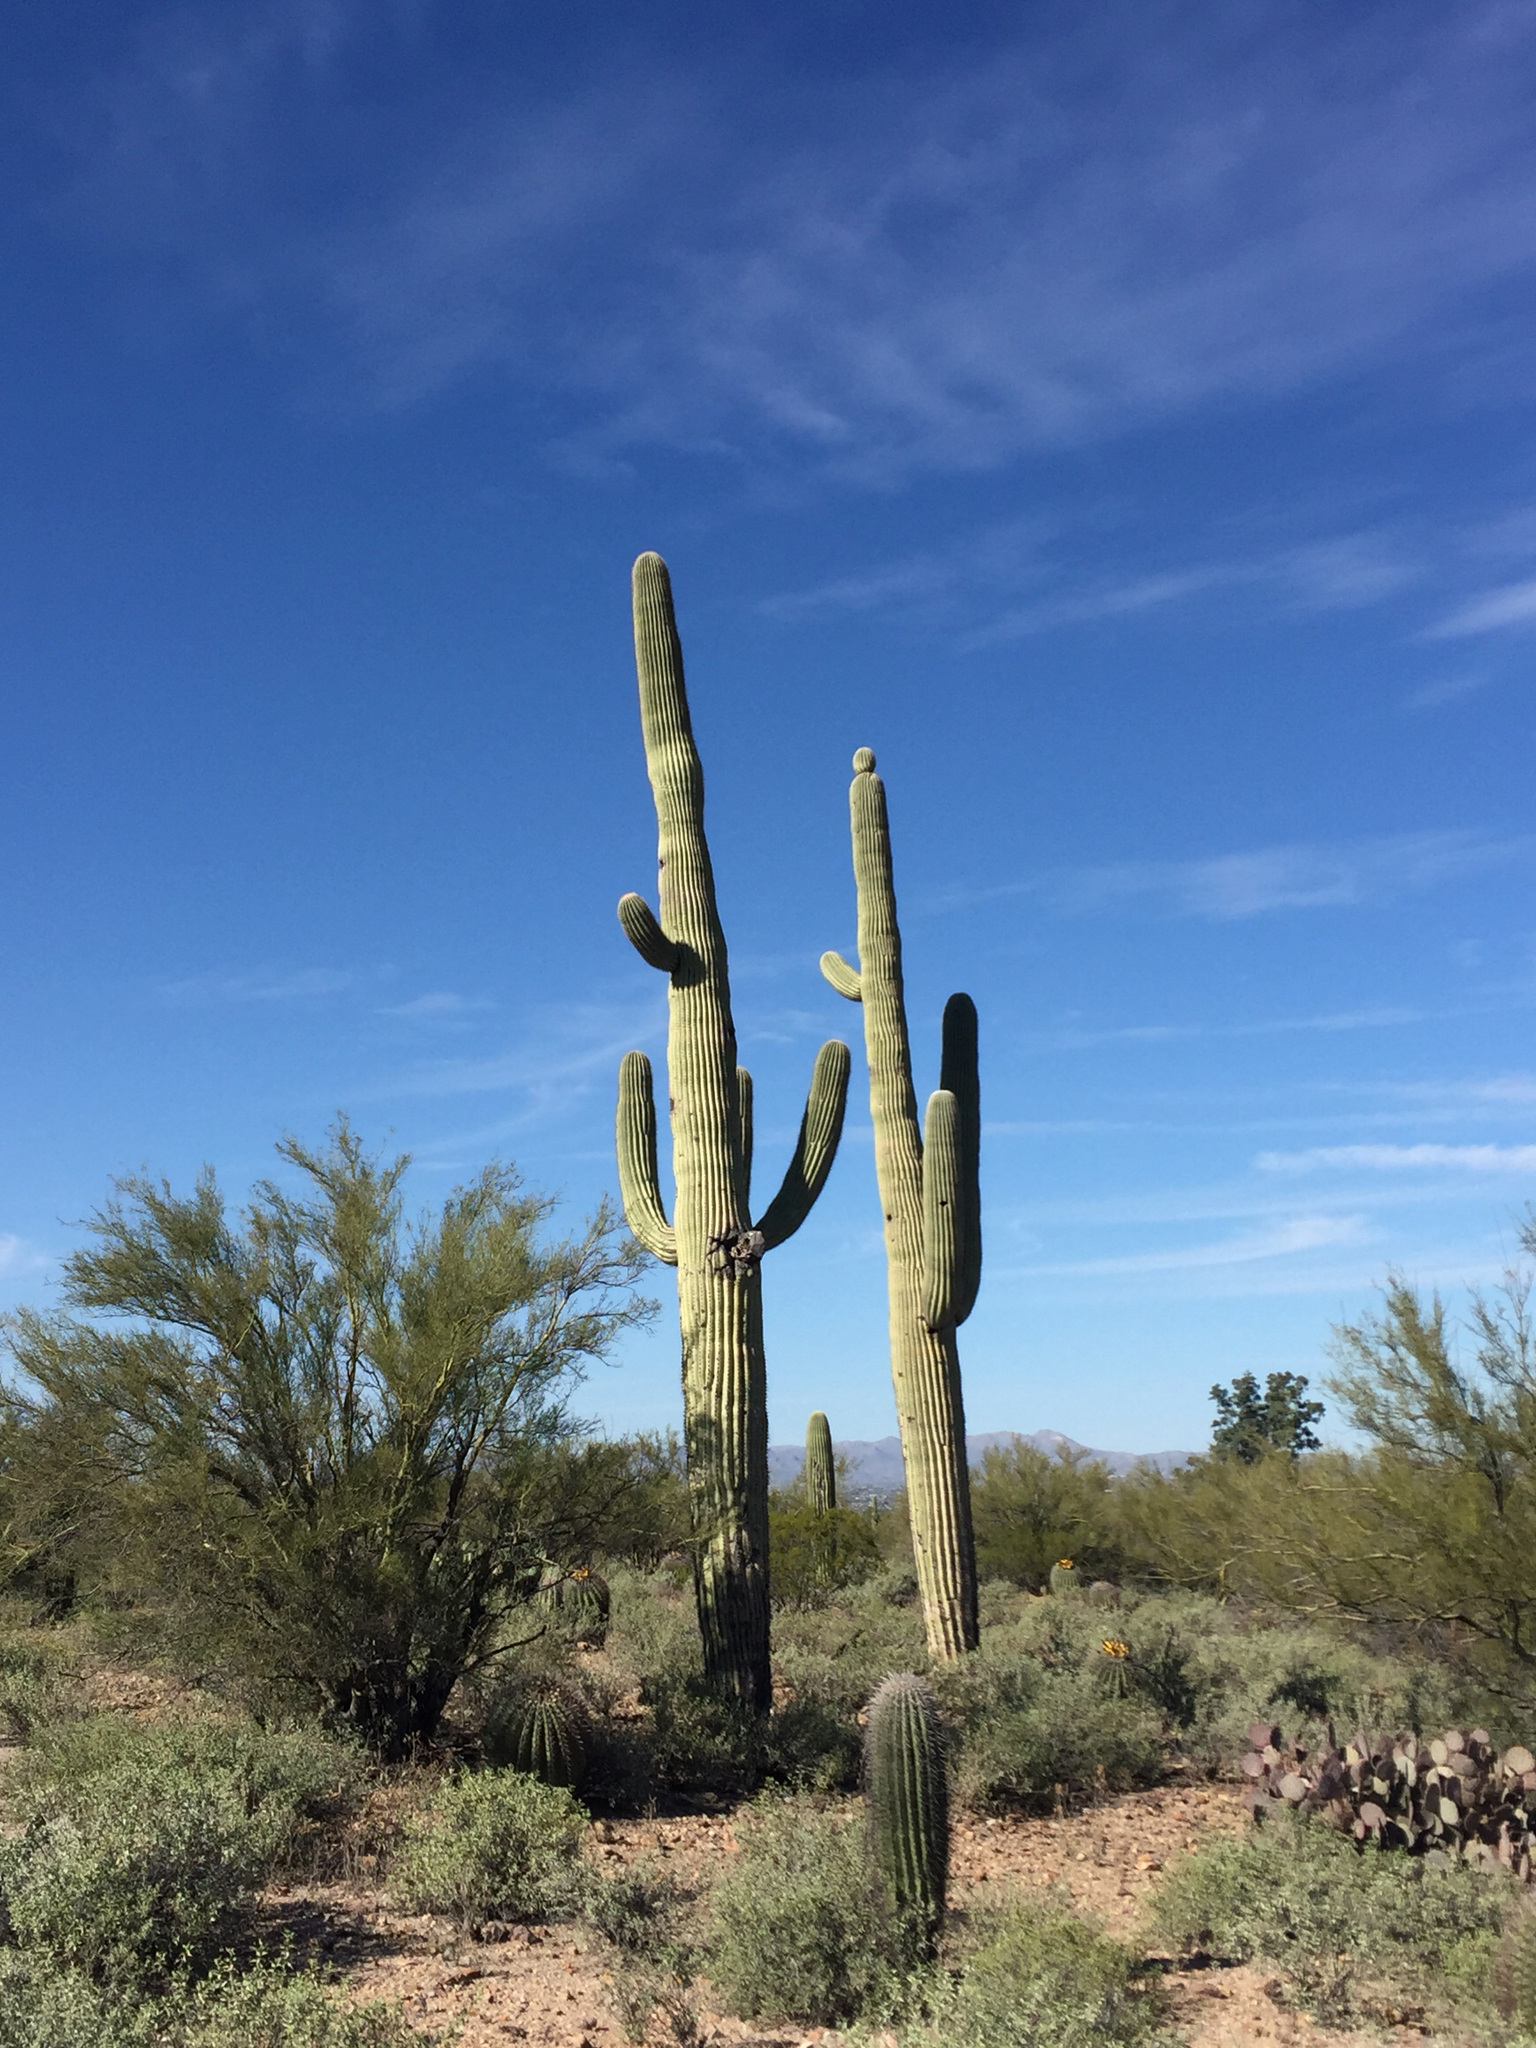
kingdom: Plantae
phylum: Tracheophyta
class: Magnoliopsida
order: Caryophyllales
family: Cactaceae
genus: Carnegiea
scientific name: Carnegiea gigantea
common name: Saguaro
